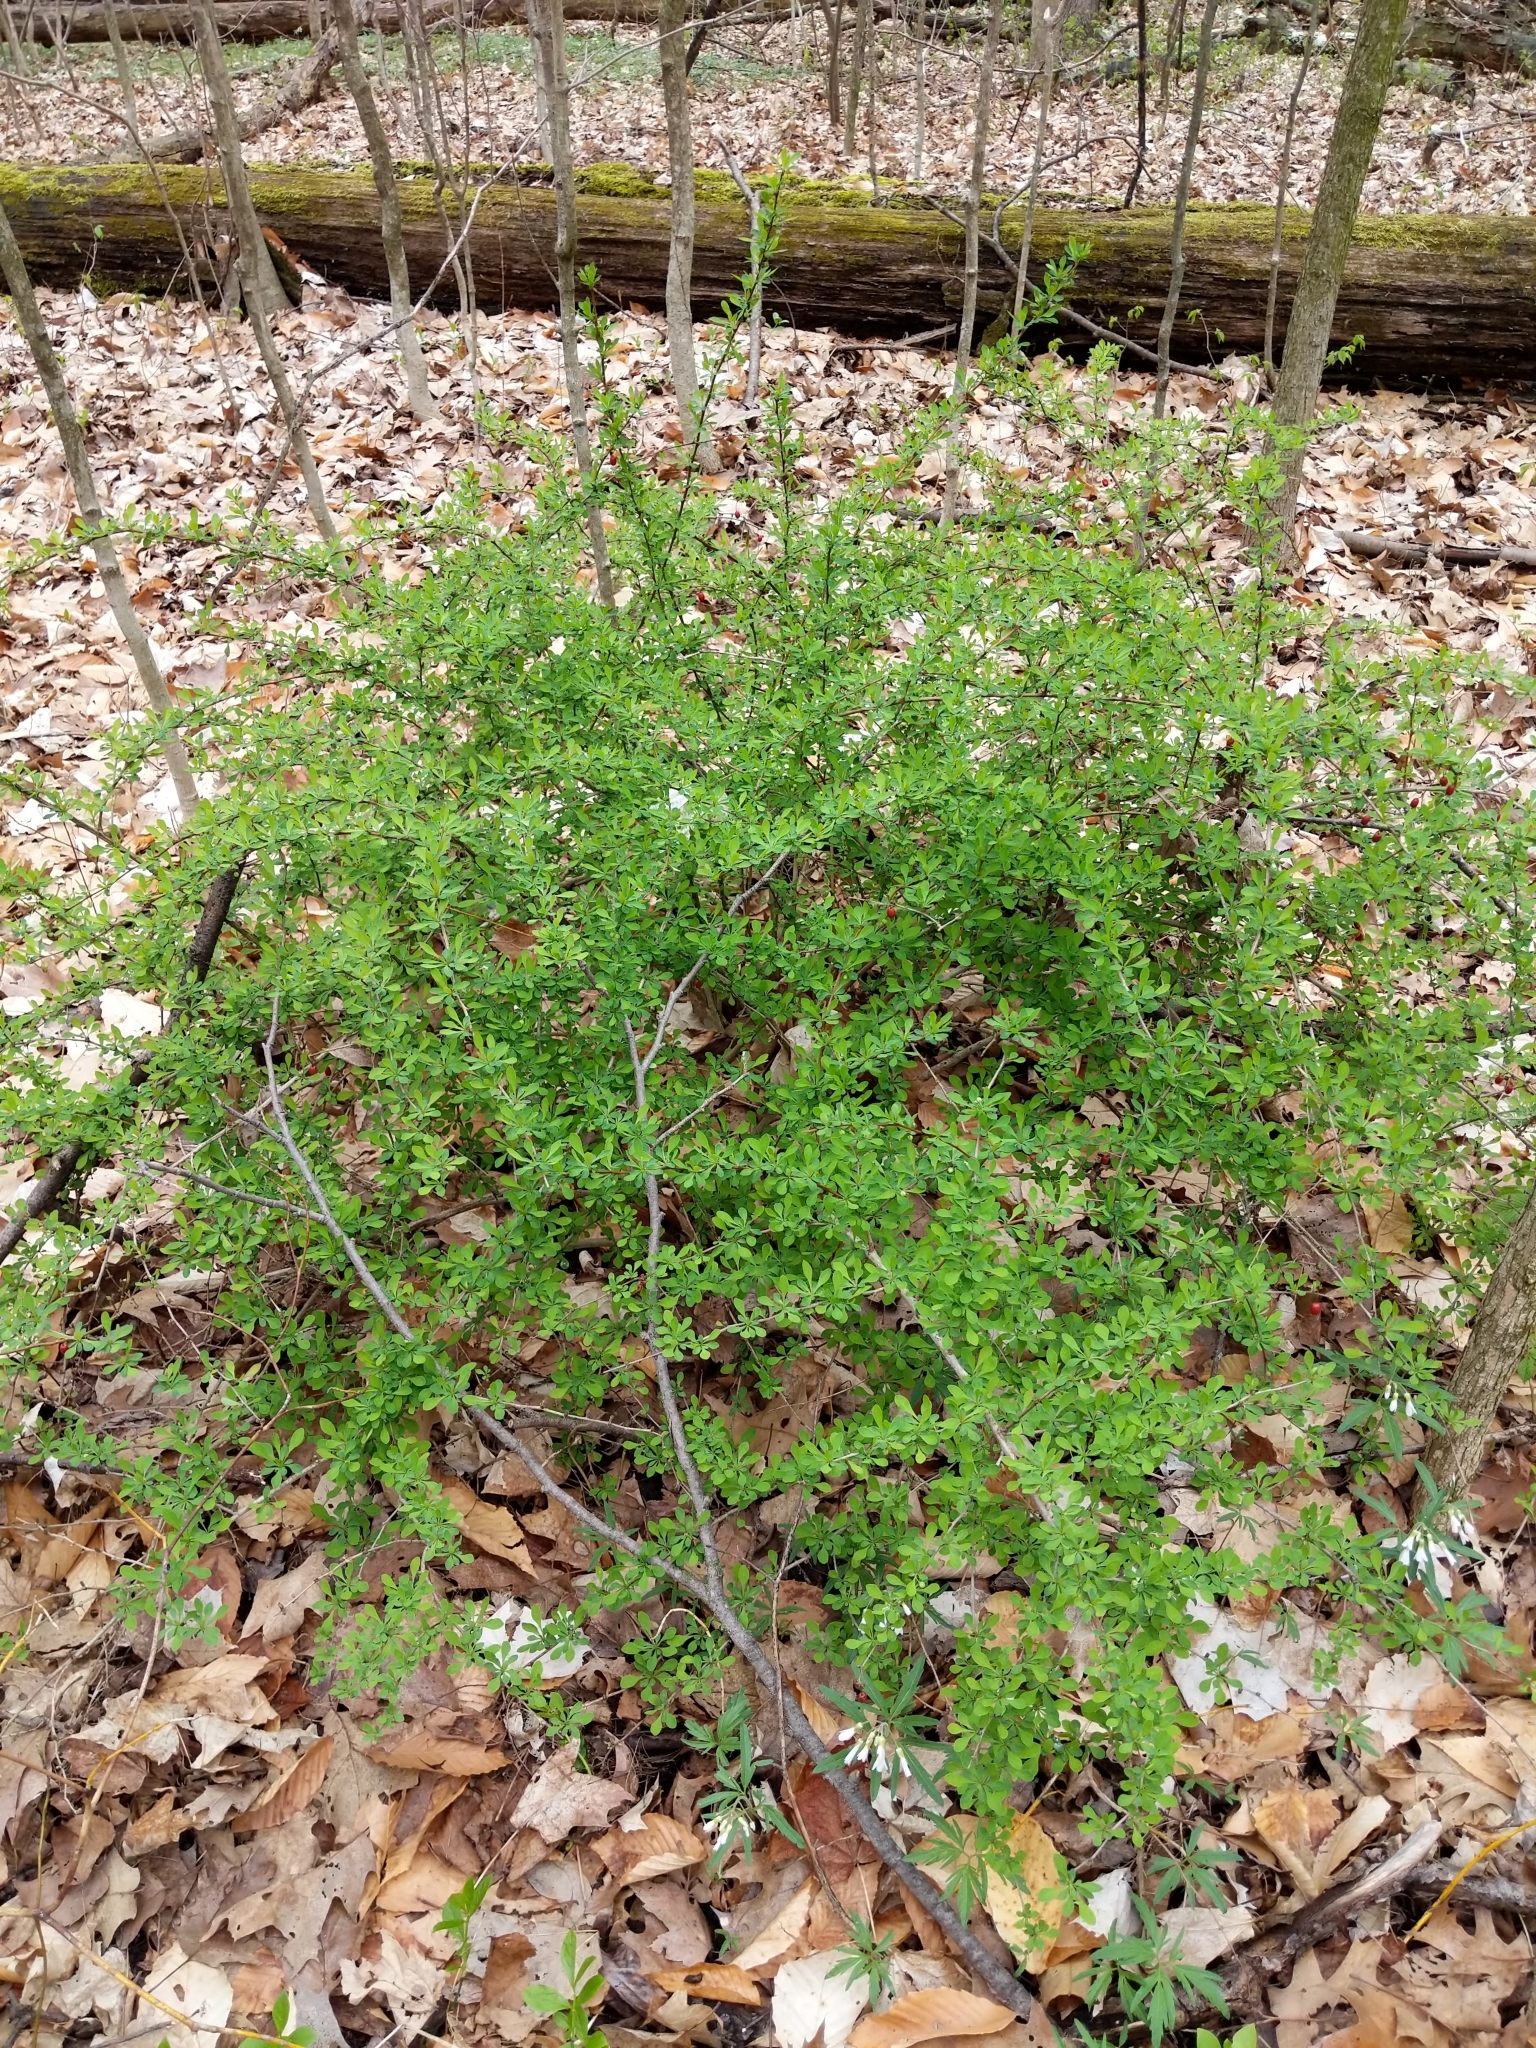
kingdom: Plantae
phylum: Tracheophyta
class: Magnoliopsida
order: Ranunculales
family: Berberidaceae
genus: Berberis
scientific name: Berberis thunbergii
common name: Japanese barberry
